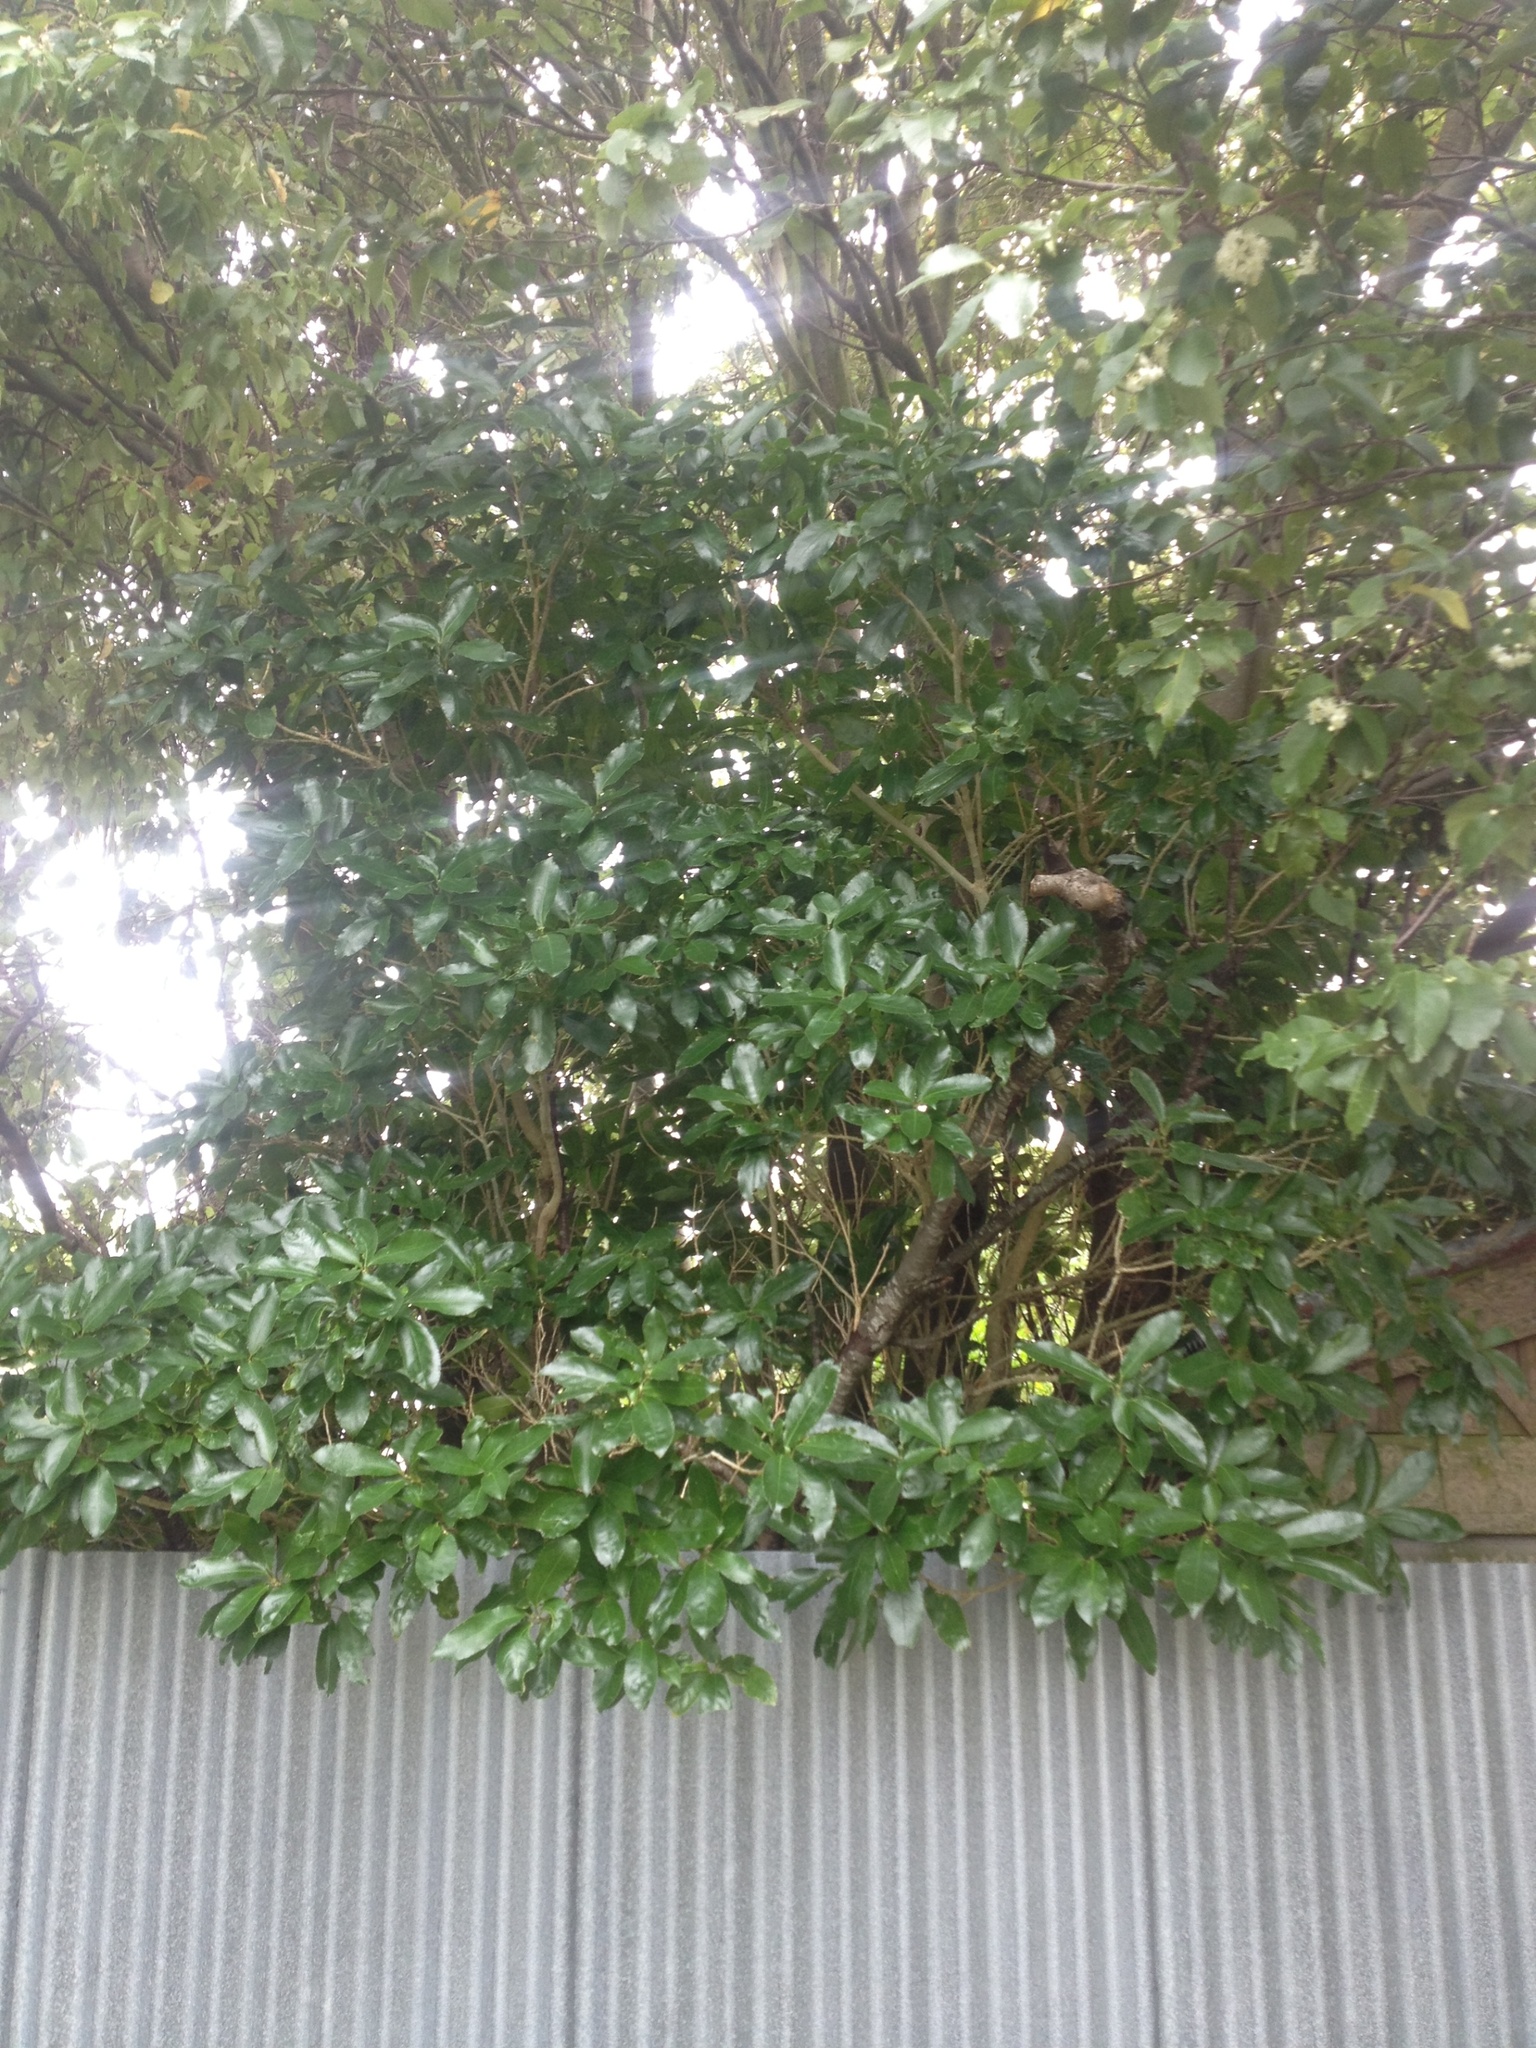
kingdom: Plantae
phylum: Tracheophyta
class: Magnoliopsida
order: Malpighiales
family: Violaceae
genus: Melicytus
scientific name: Melicytus ramiflorus
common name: Mahoe
